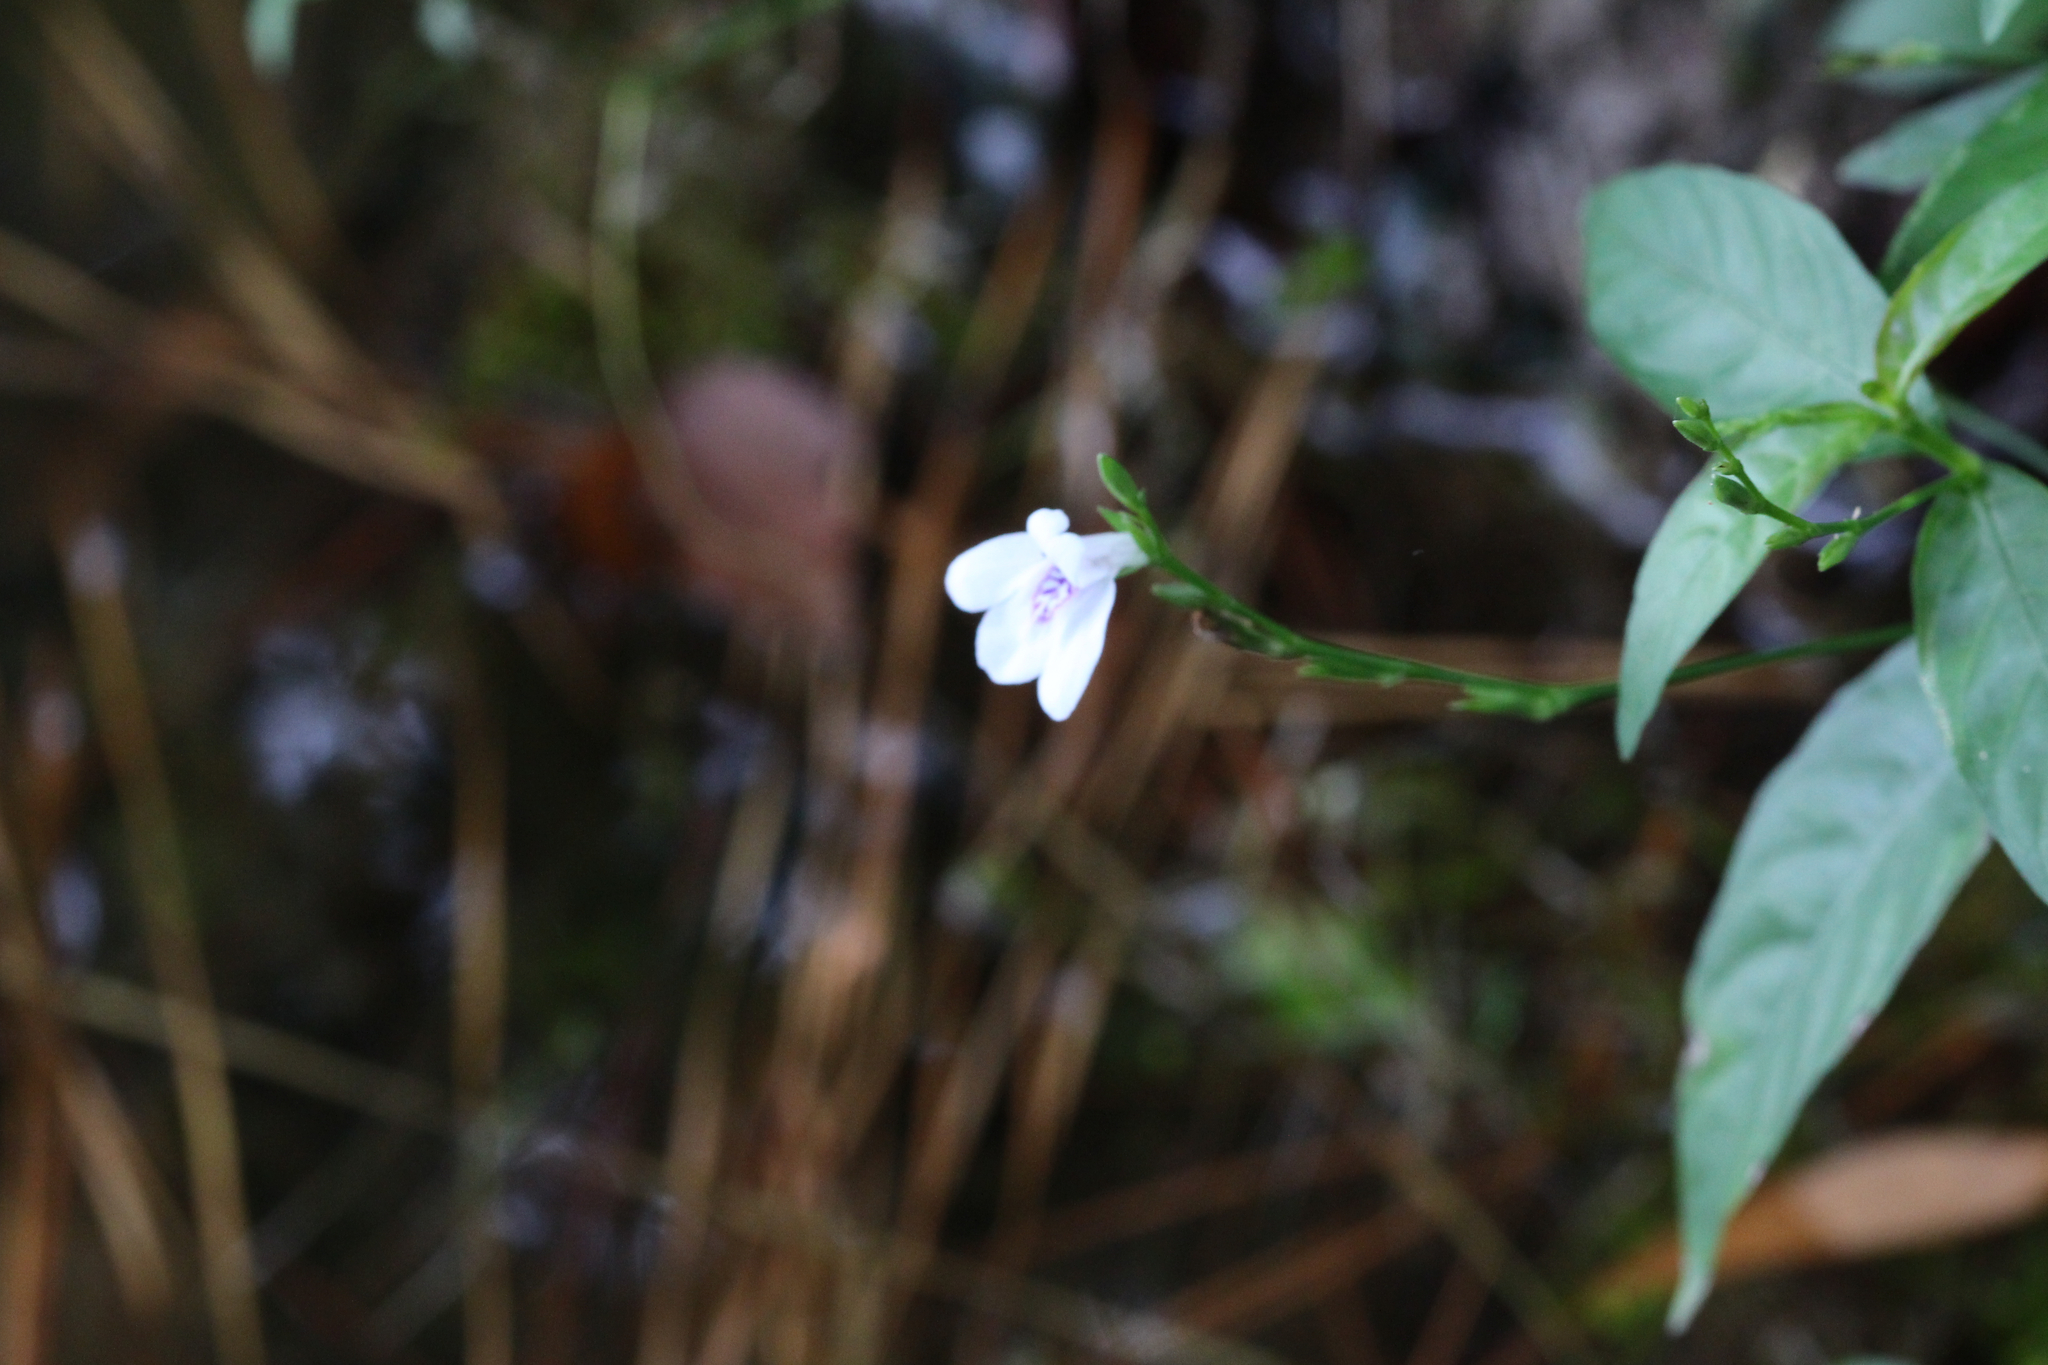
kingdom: Plantae
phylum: Tracheophyta
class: Magnoliopsida
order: Lamiales
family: Acanthaceae
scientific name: Acanthaceae
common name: Acanthaceae
